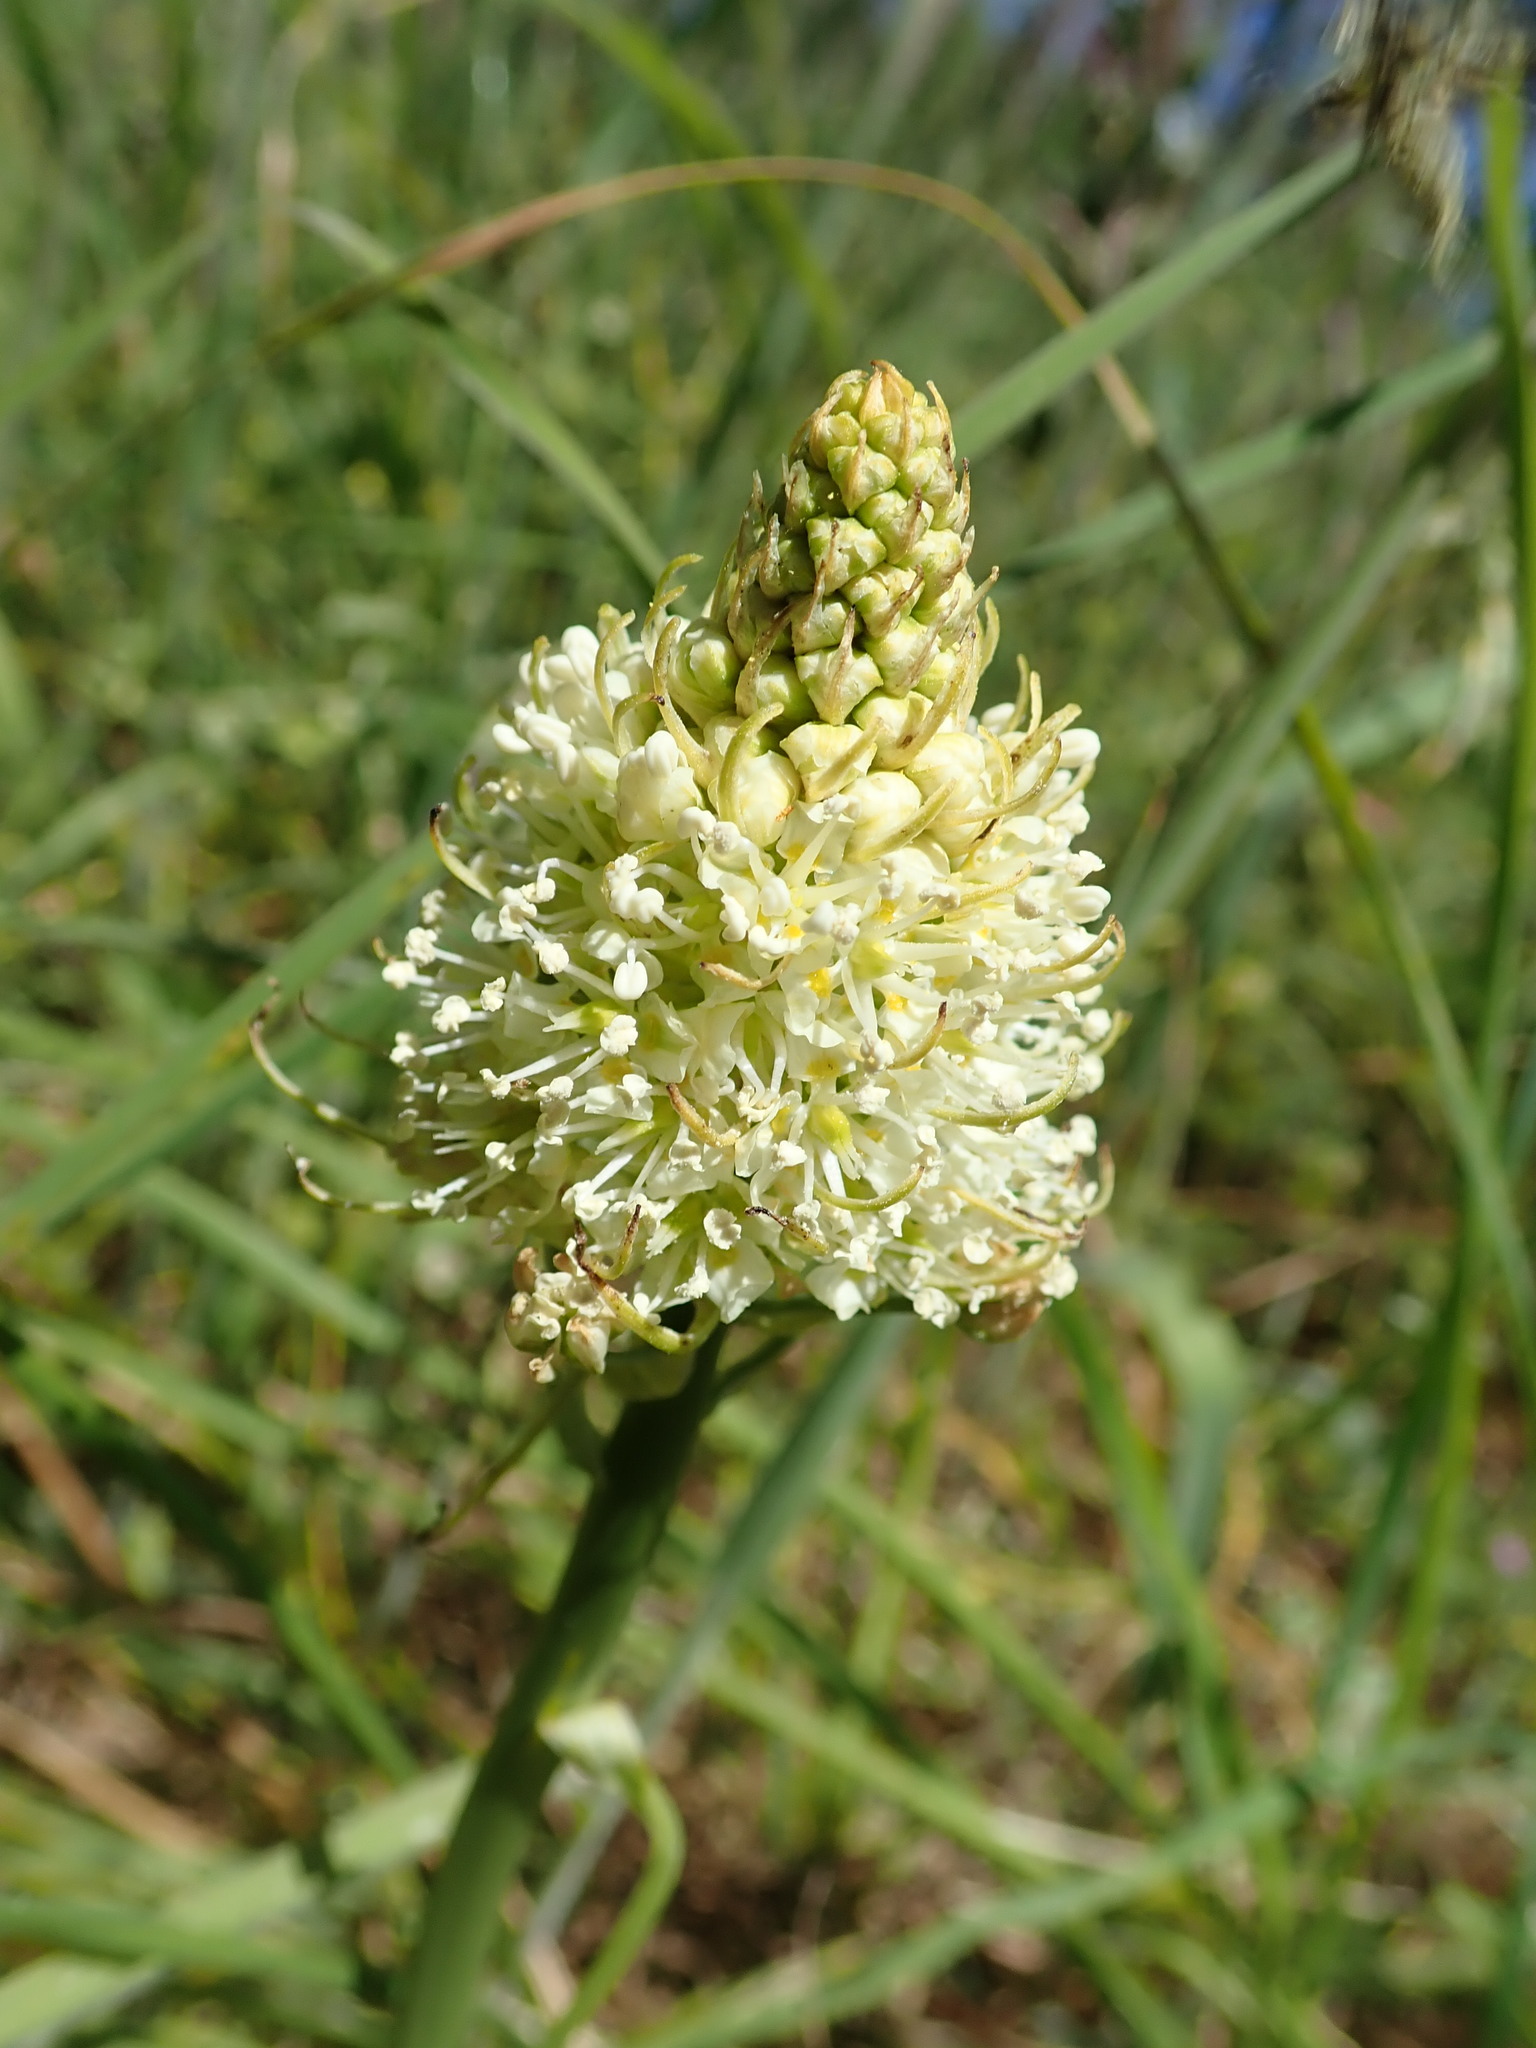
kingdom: Plantae
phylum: Tracheophyta
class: Liliopsida
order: Liliales
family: Melanthiaceae
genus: Toxicoscordion
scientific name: Toxicoscordion venenosum
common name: Meadow death camas
